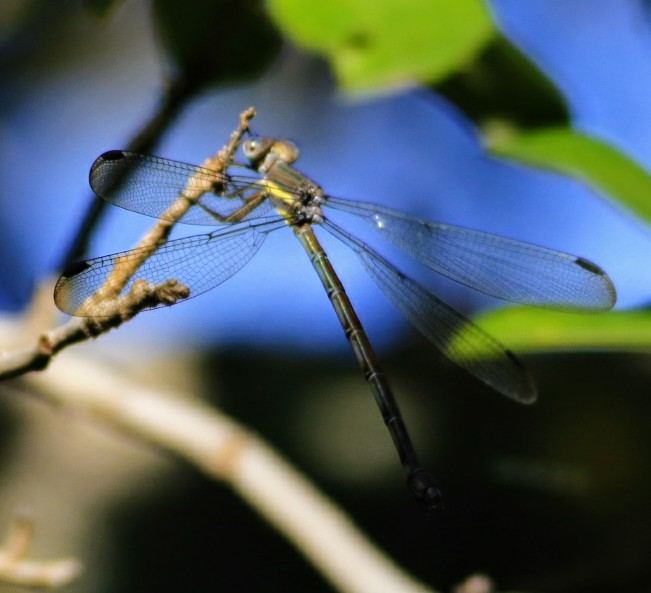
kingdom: Animalia
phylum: Arthropoda
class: Insecta
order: Odonata
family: Lestidae
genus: Archilestes
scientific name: Archilestes grandis
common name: Great spreadwing
